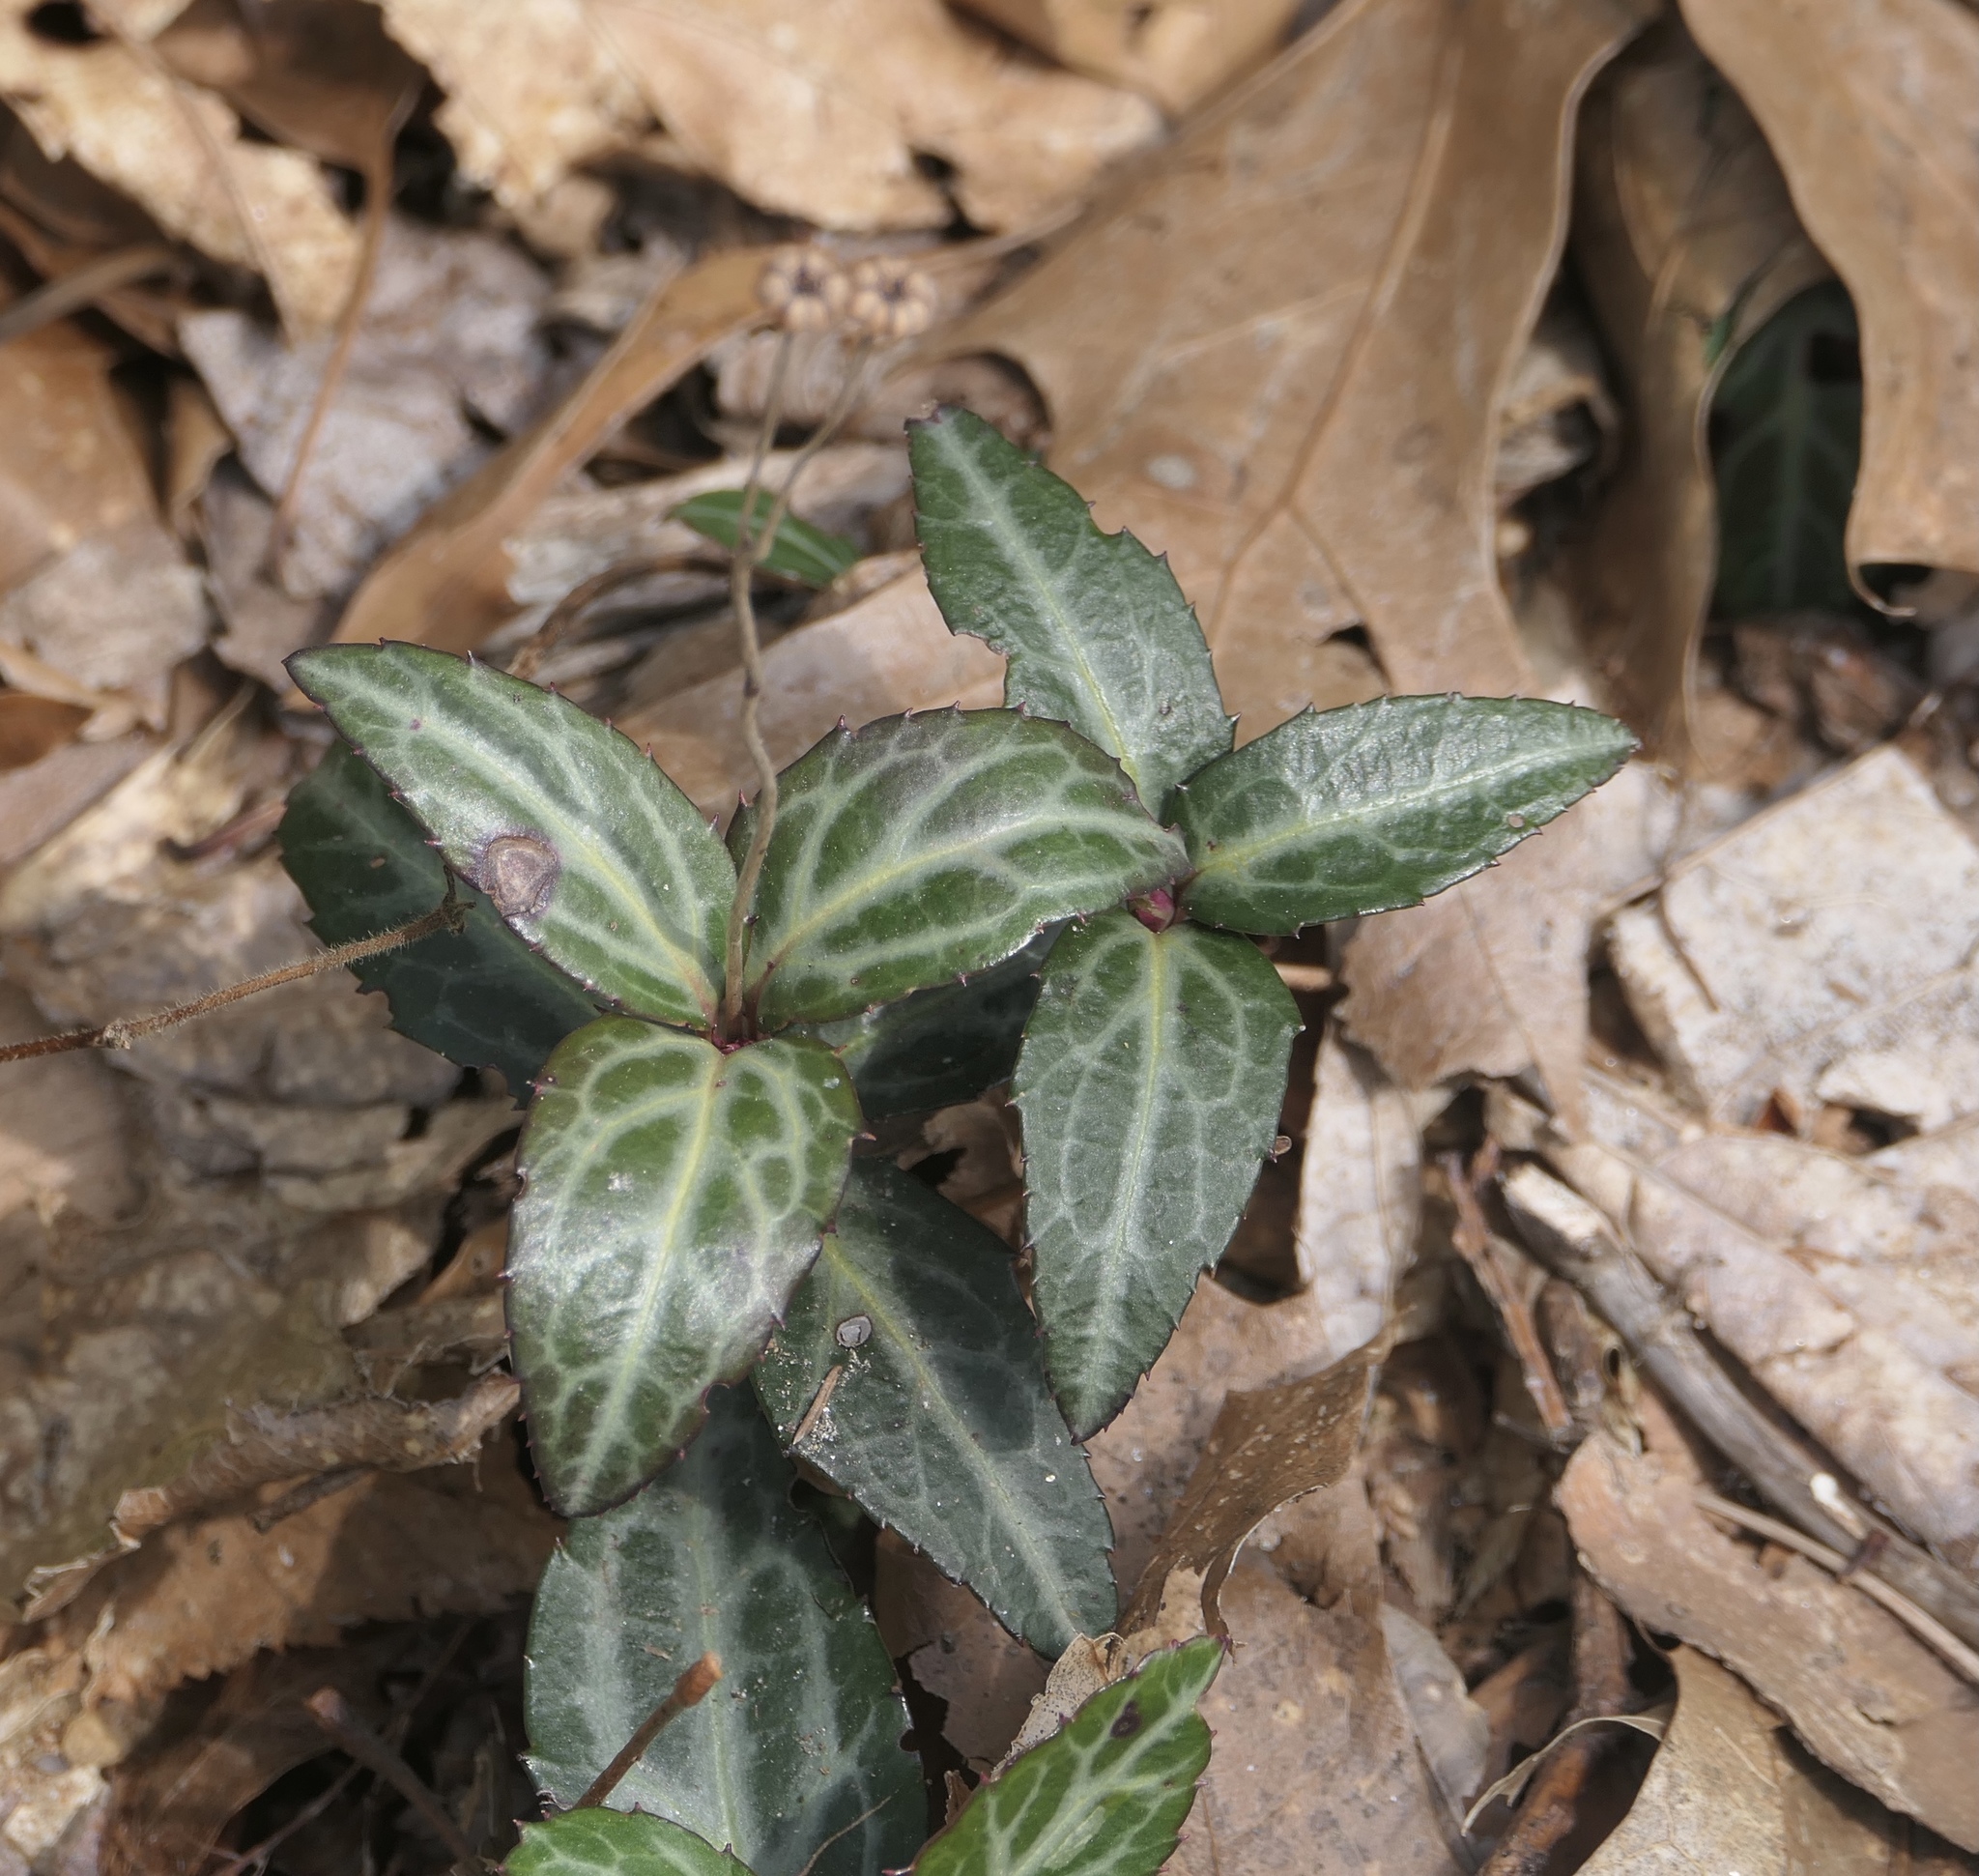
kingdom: Plantae
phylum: Tracheophyta
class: Magnoliopsida
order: Ericales
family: Ericaceae
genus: Chimaphila
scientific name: Chimaphila maculata
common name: Spotted pipsissewa
